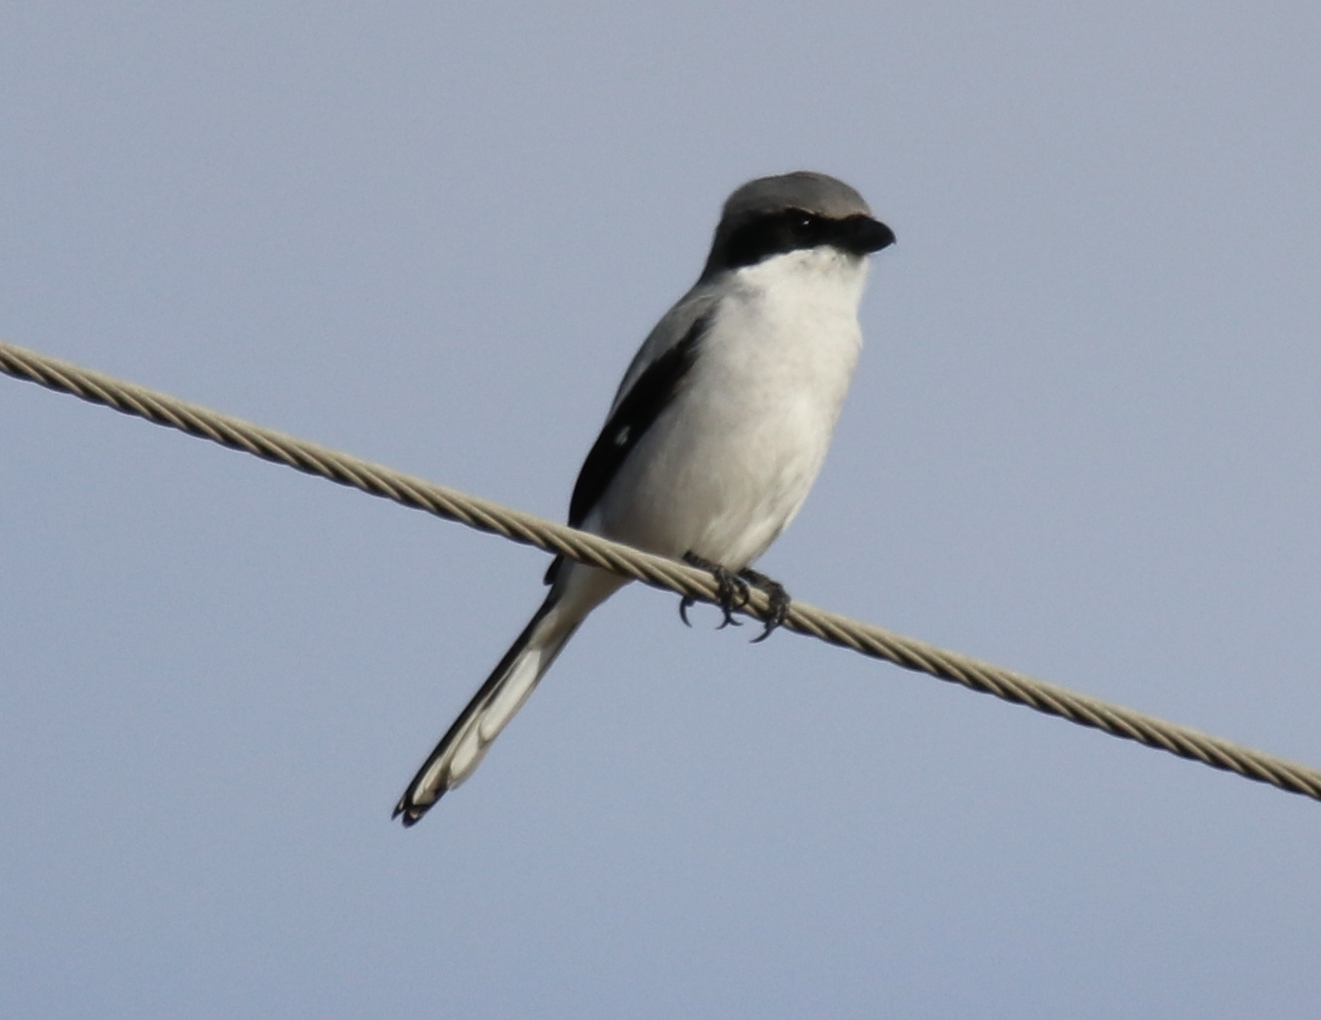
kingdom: Animalia
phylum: Chordata
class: Aves
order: Passeriformes
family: Laniidae
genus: Lanius
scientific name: Lanius ludovicianus
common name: Loggerhead shrike
